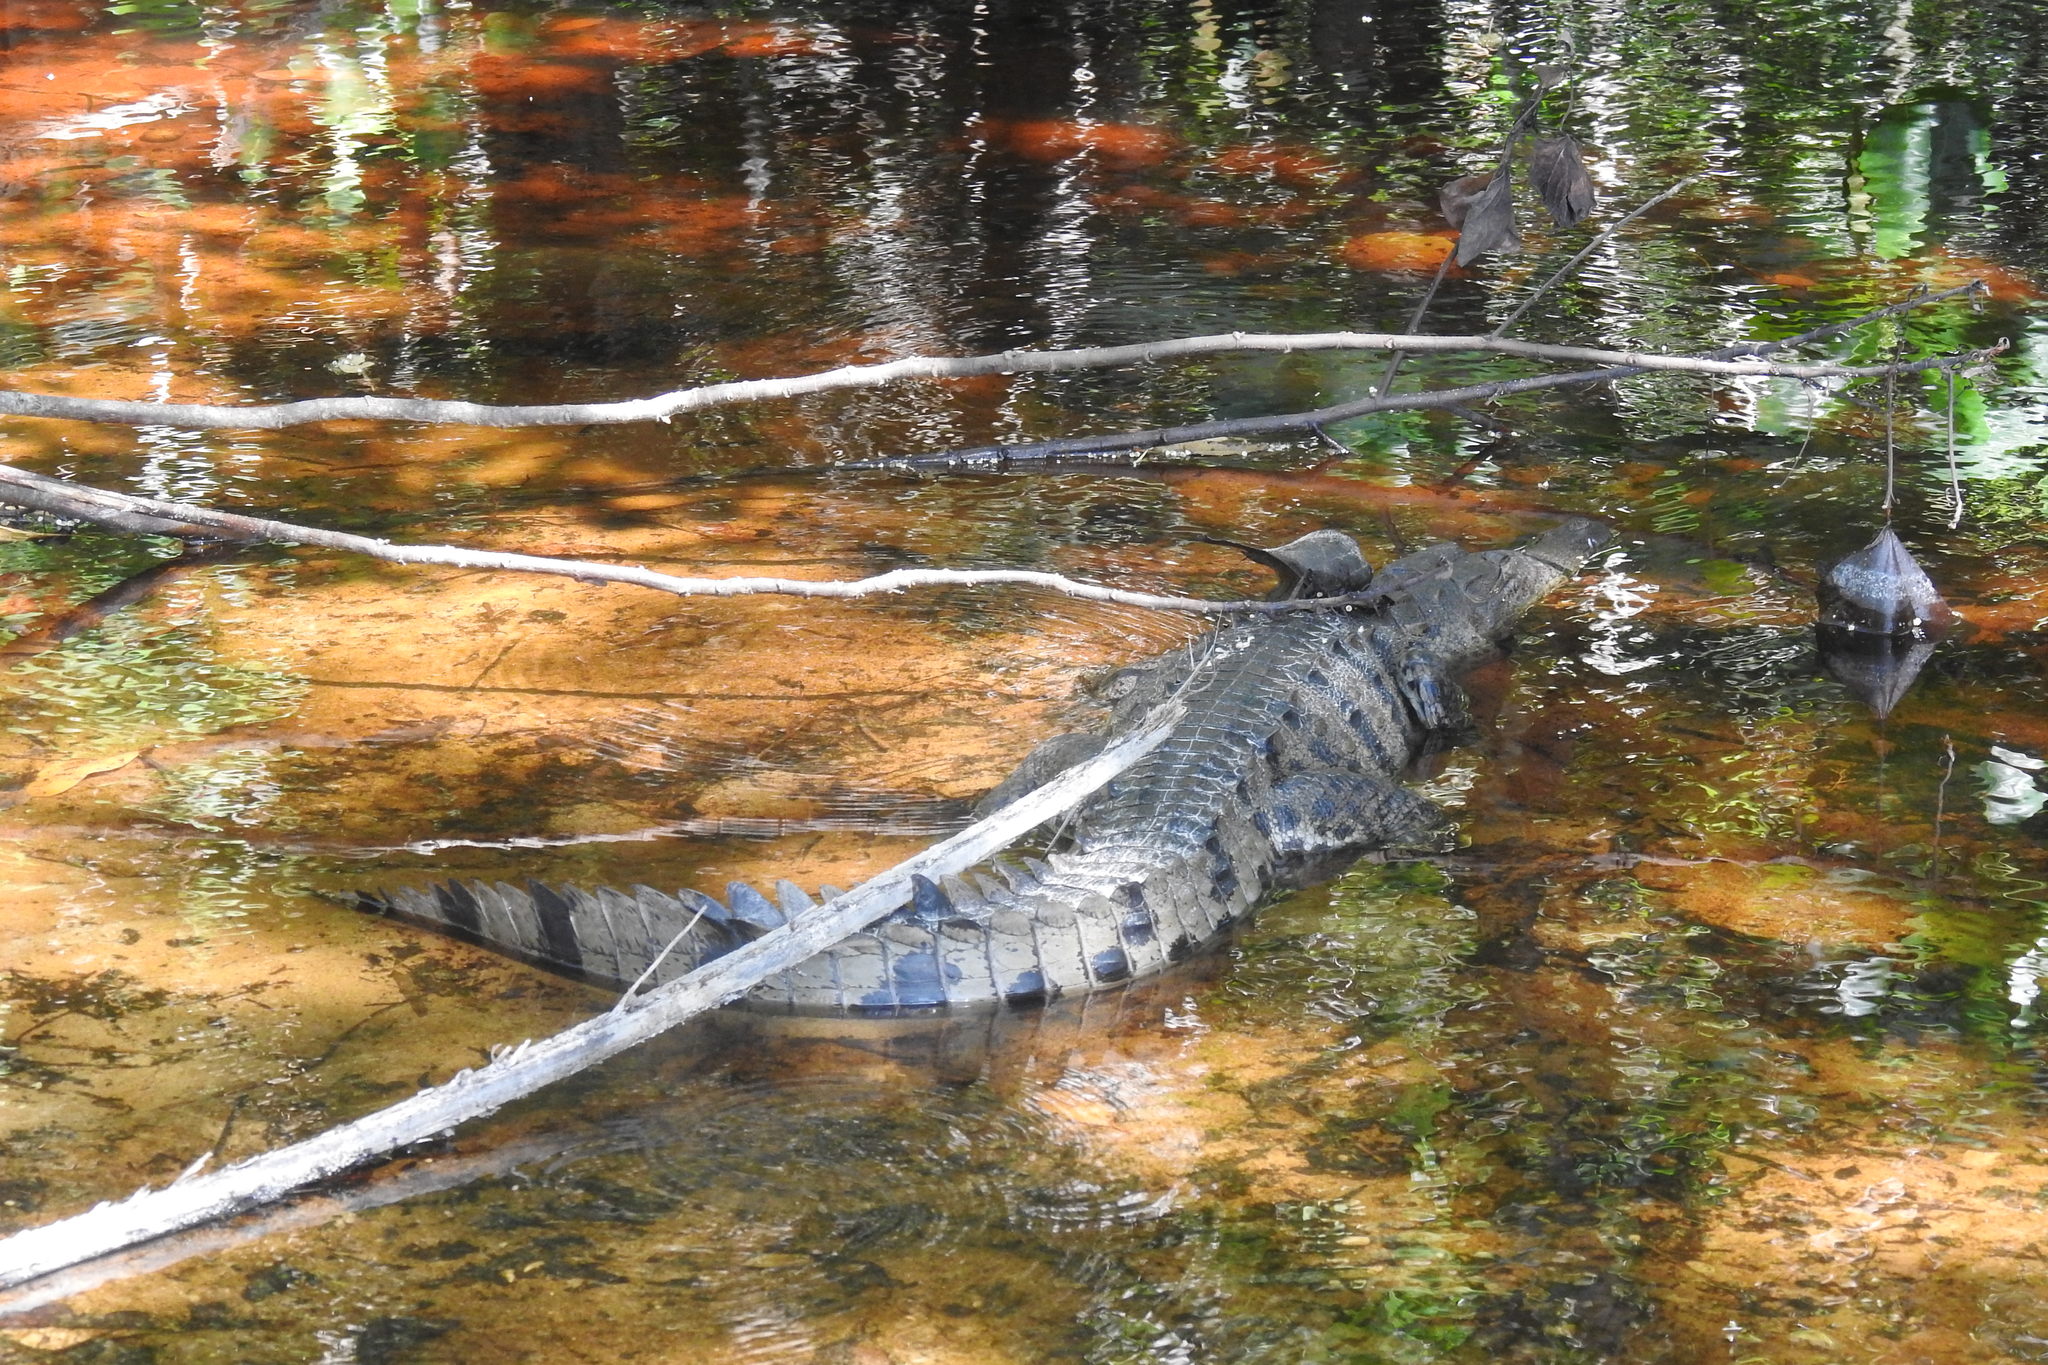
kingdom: Animalia
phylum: Chordata
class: Crocodylia
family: Crocodylidae
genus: Crocodylus
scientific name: Crocodylus acutus
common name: American crocodile
